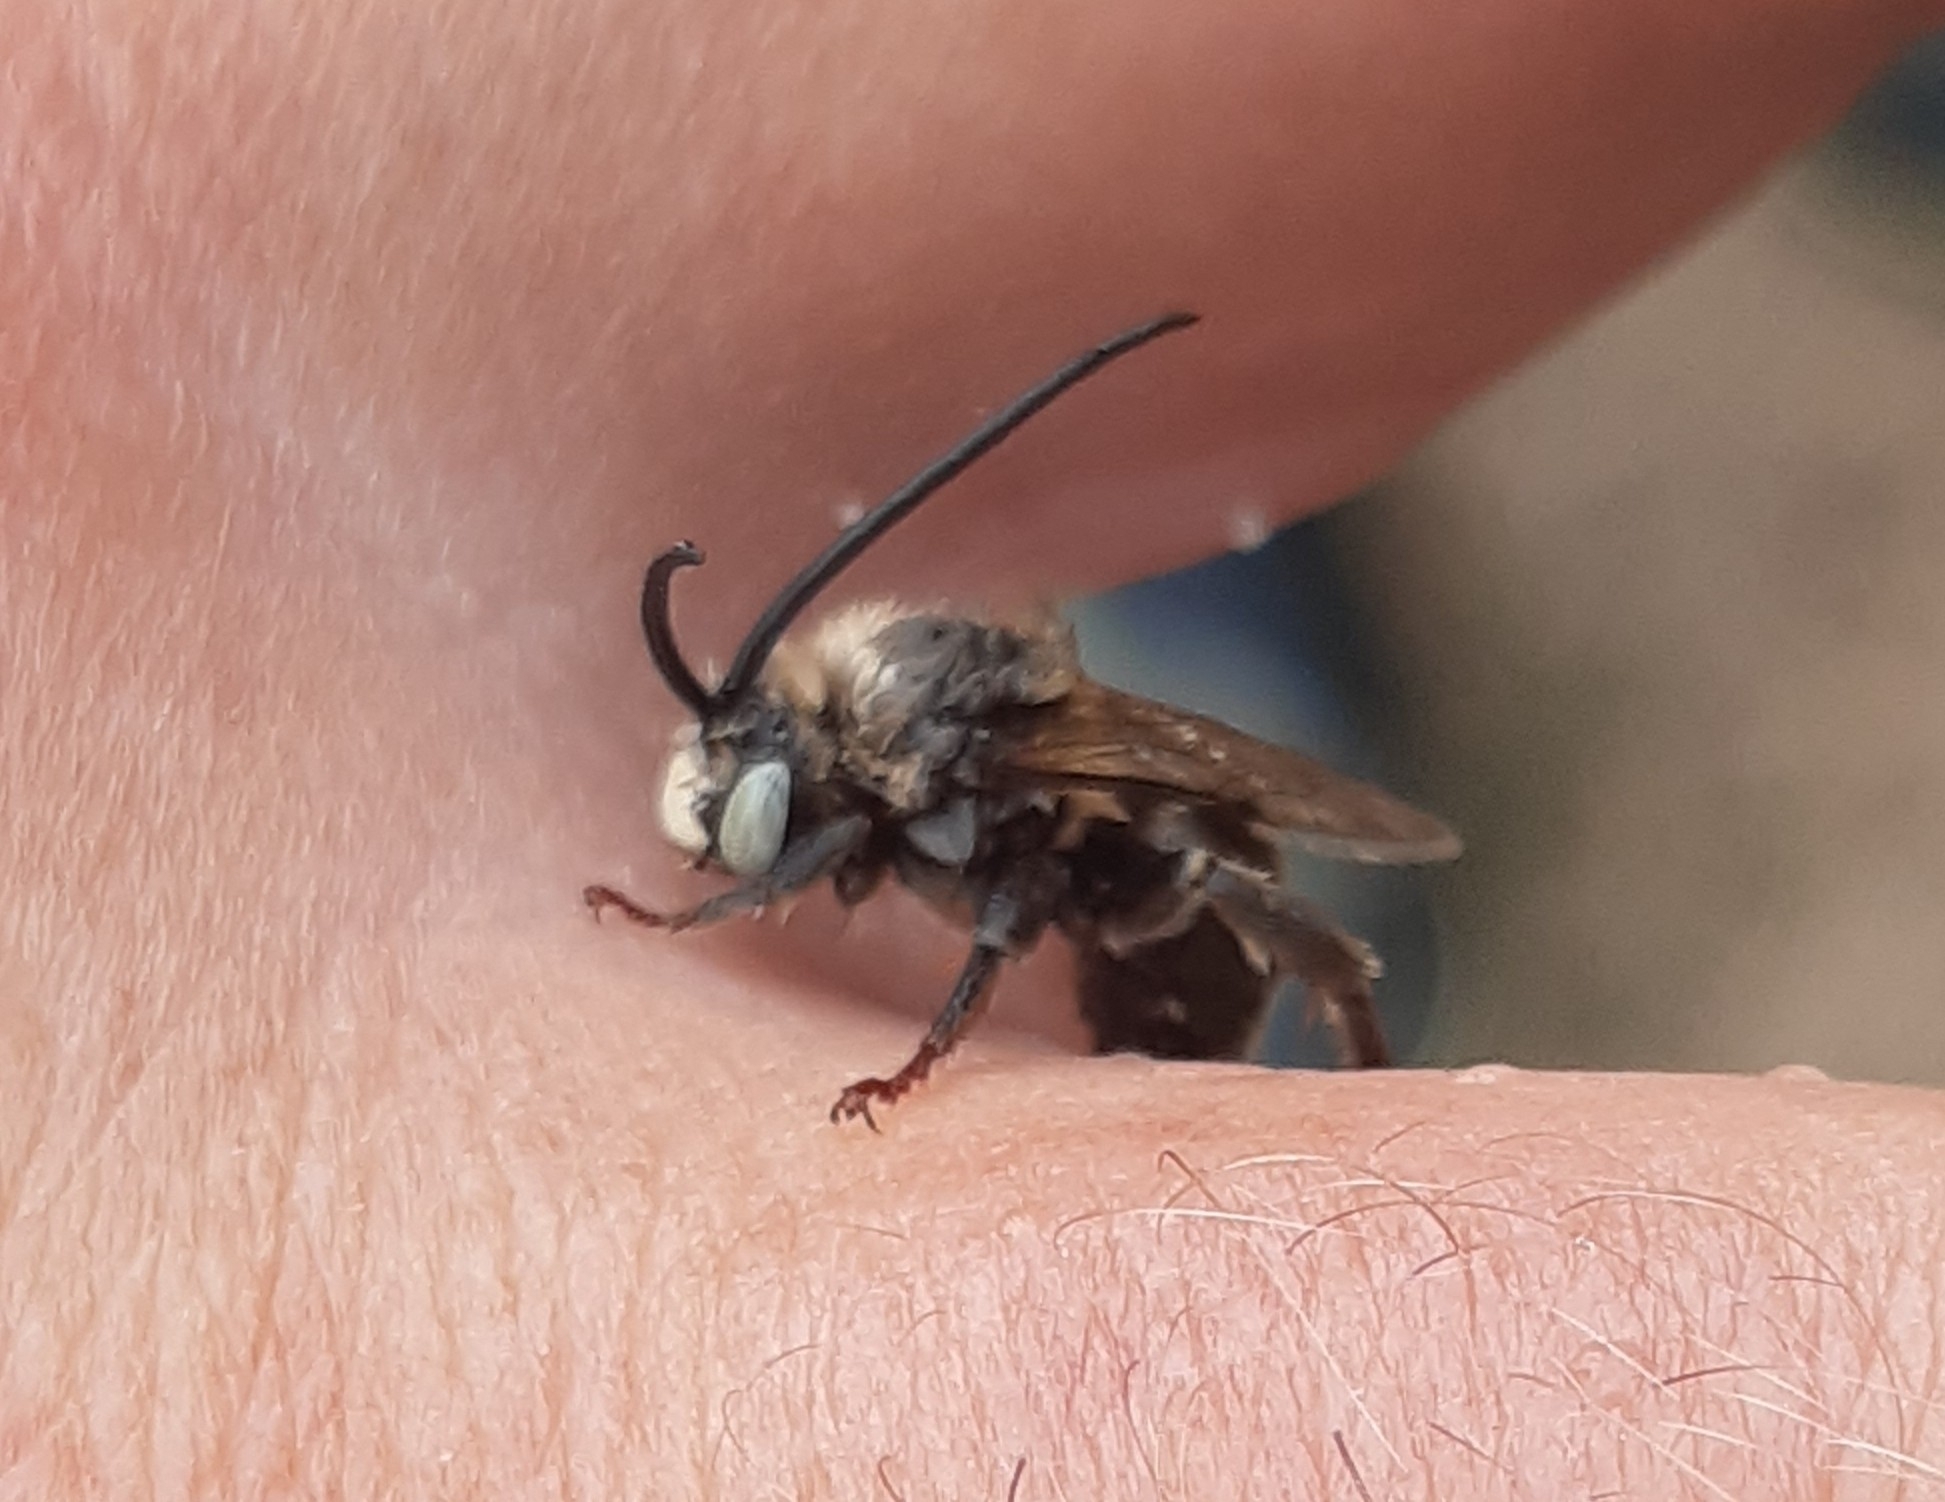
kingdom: Animalia
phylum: Arthropoda
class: Insecta
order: Hymenoptera
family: Apidae
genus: Tetraloniella
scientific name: Tetraloniella dentata
